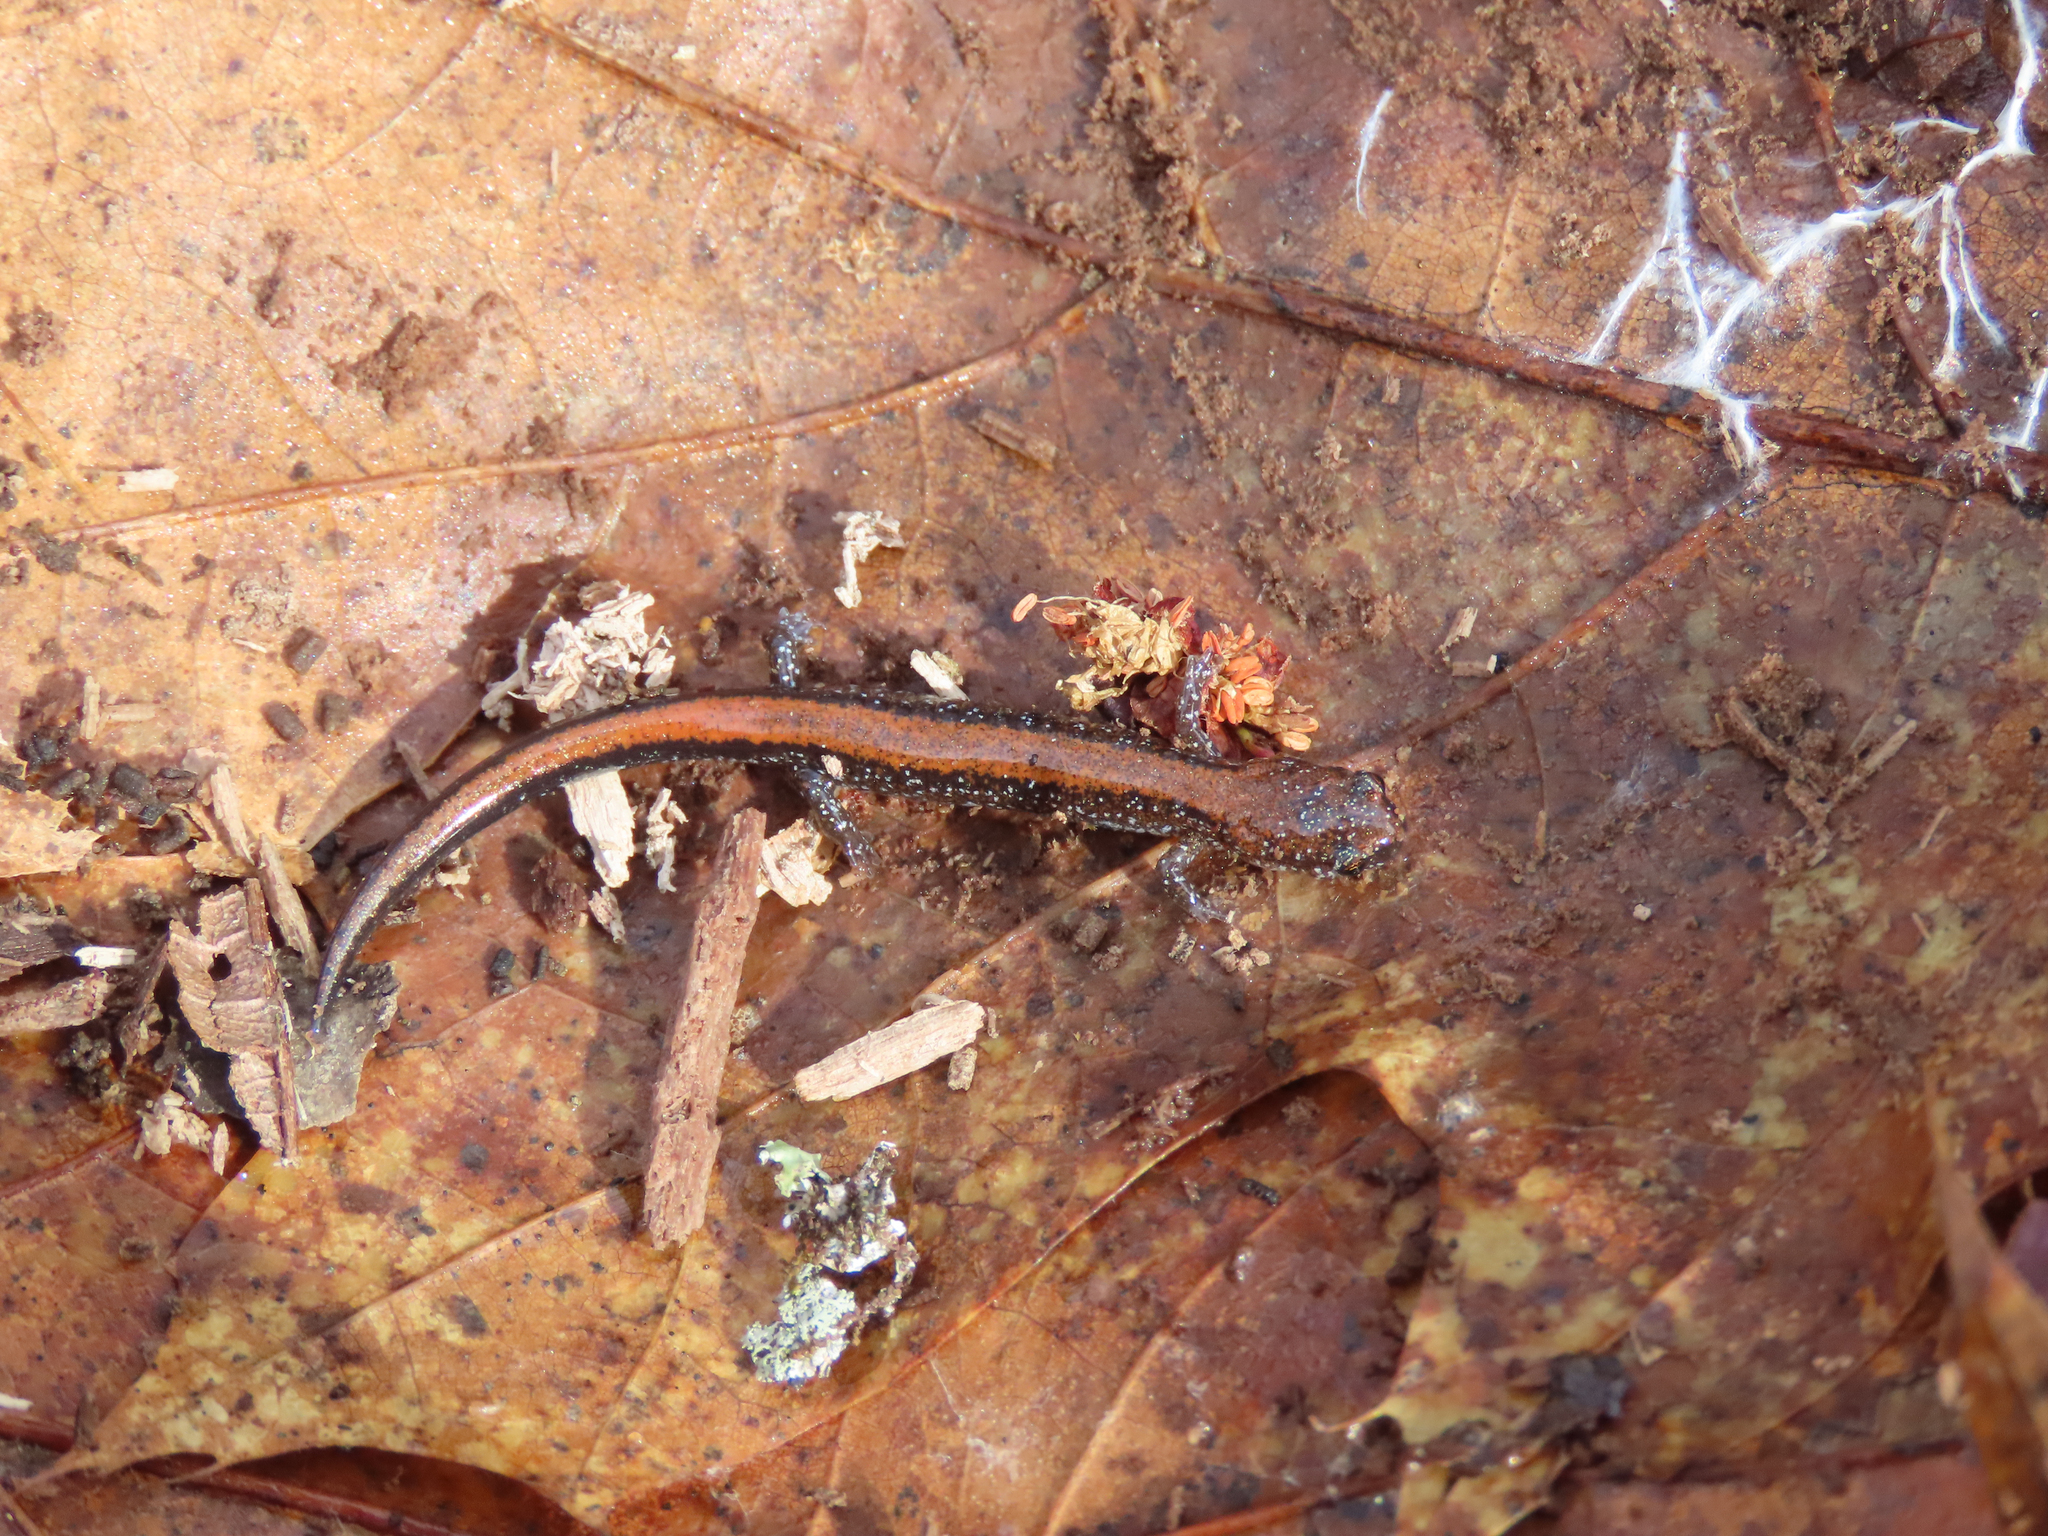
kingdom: Animalia
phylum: Chordata
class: Amphibia
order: Caudata
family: Plethodontidae
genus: Plethodon
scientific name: Plethodon cinereus
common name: Redback salamander
